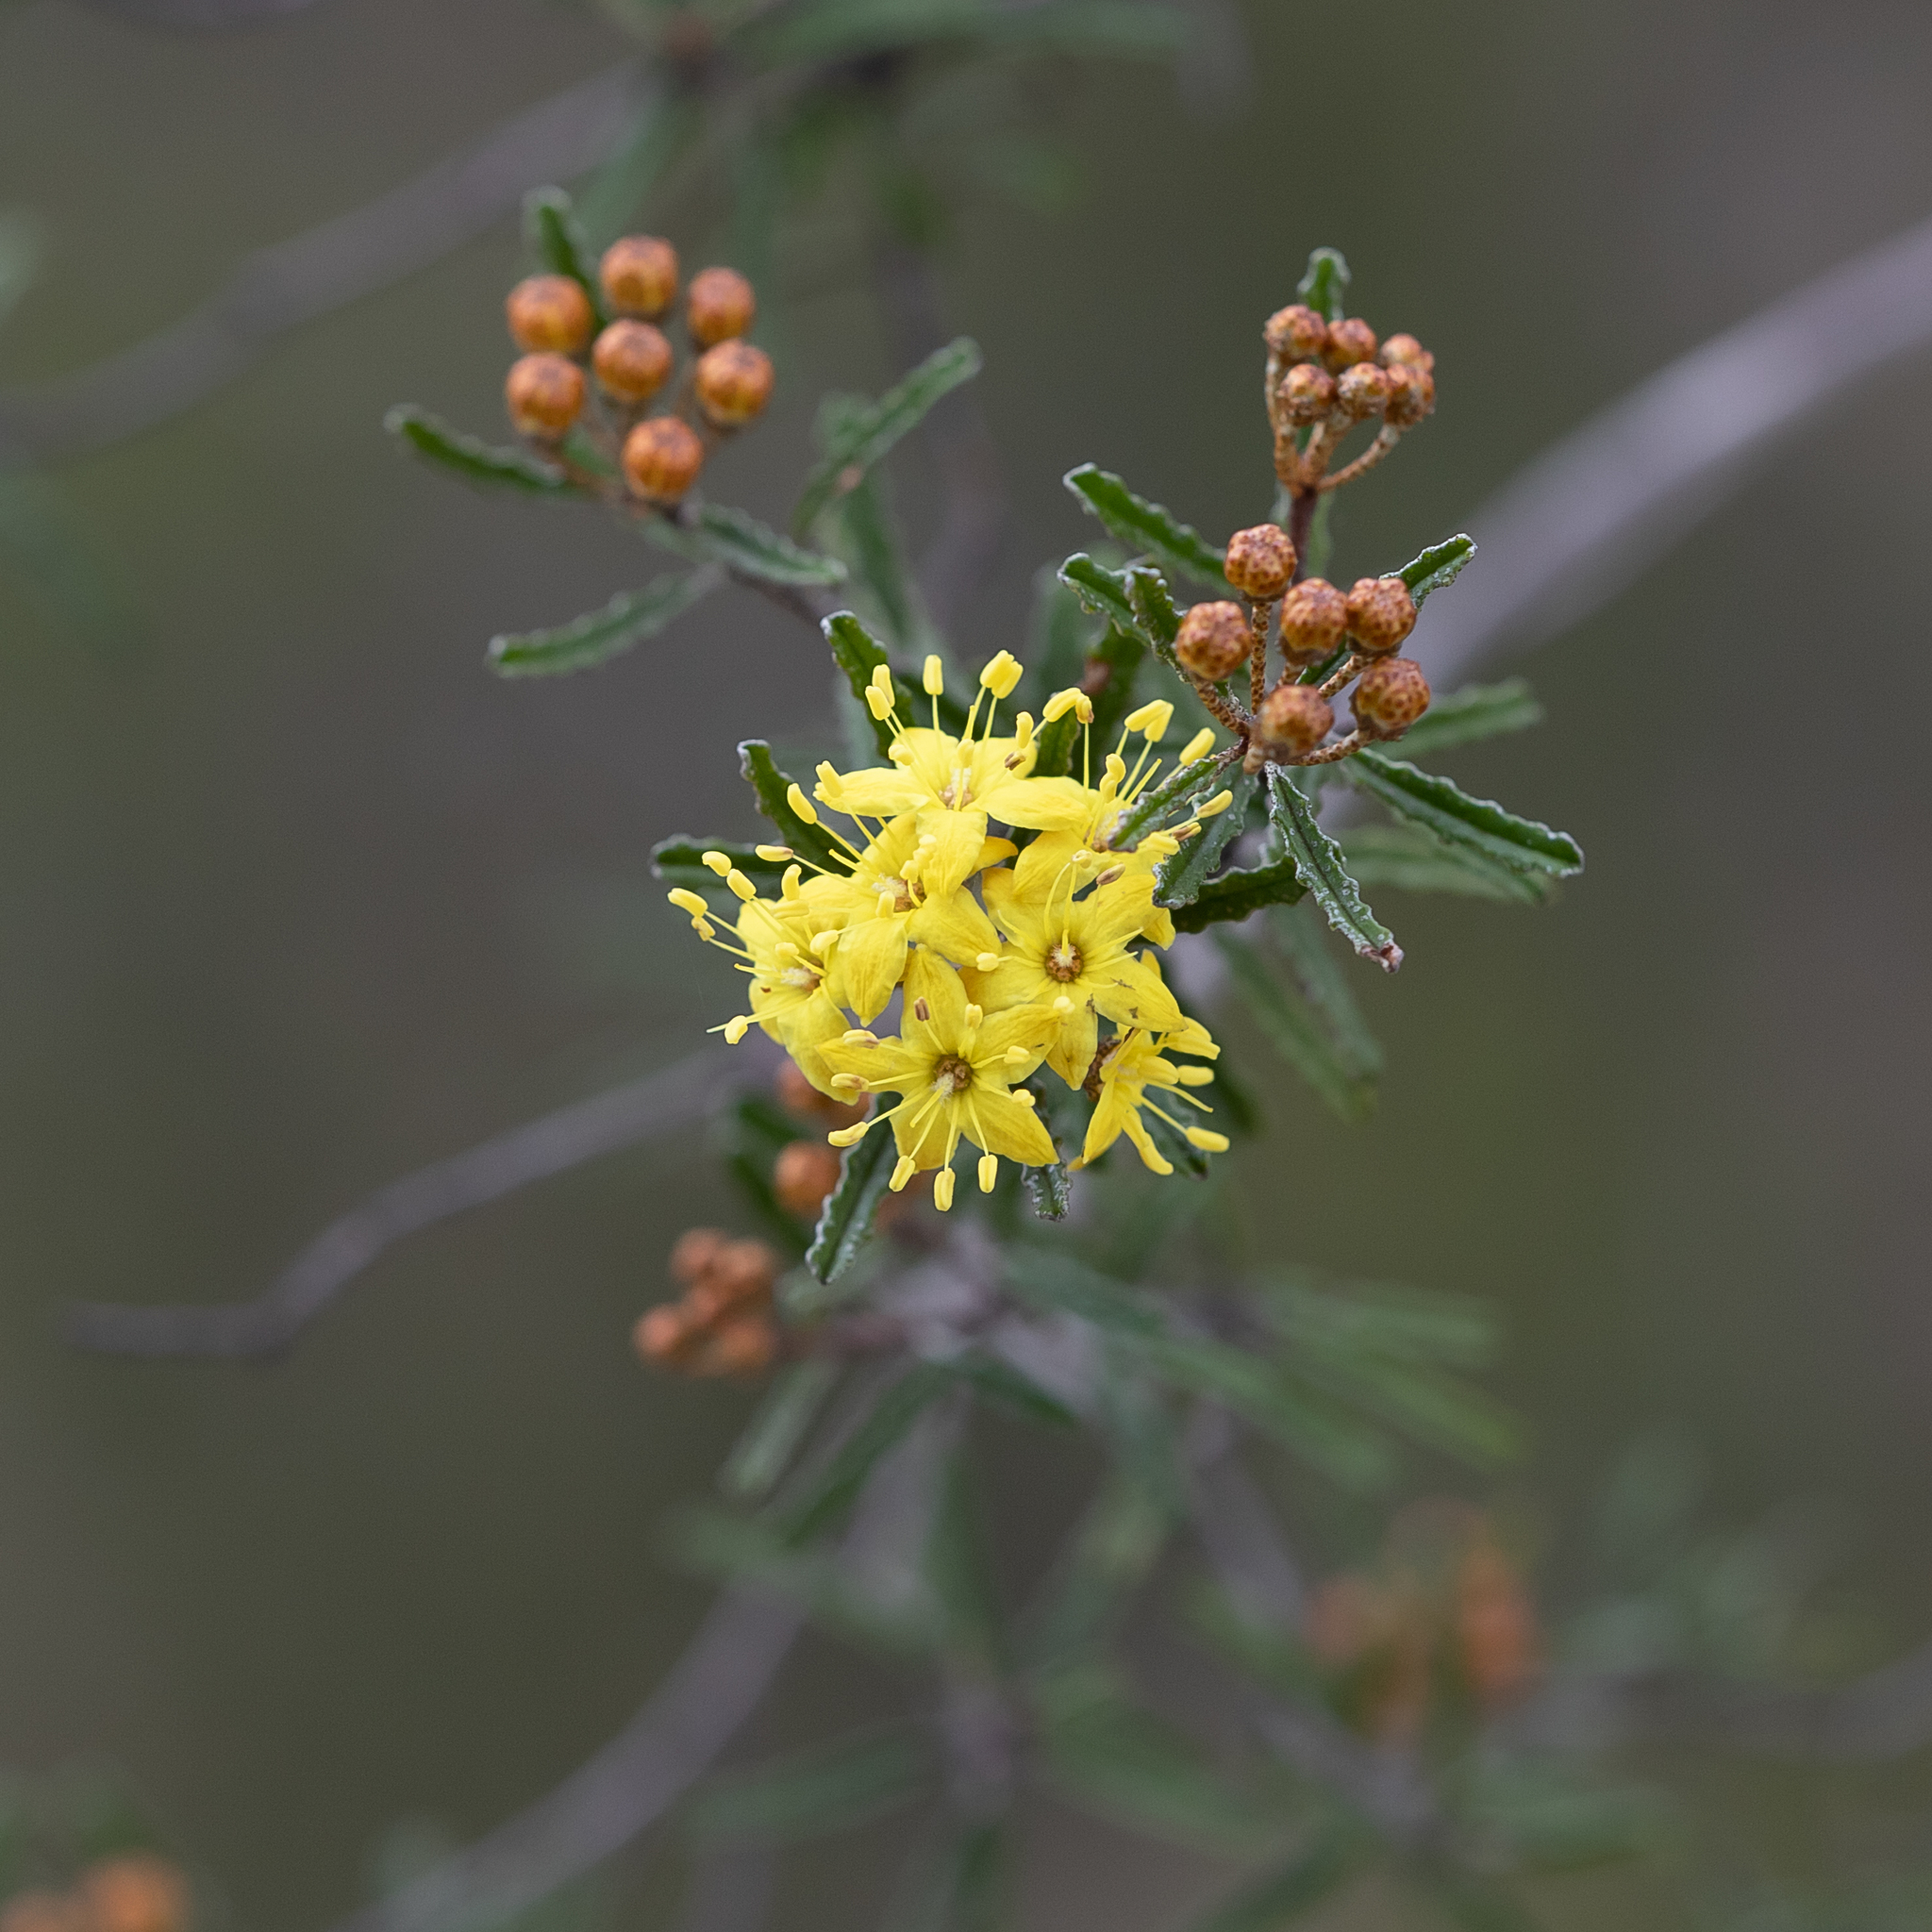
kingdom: Plantae
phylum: Tracheophyta
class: Magnoliopsida
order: Sapindales
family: Rutaceae
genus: Phebalium
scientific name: Phebalium bullatum
